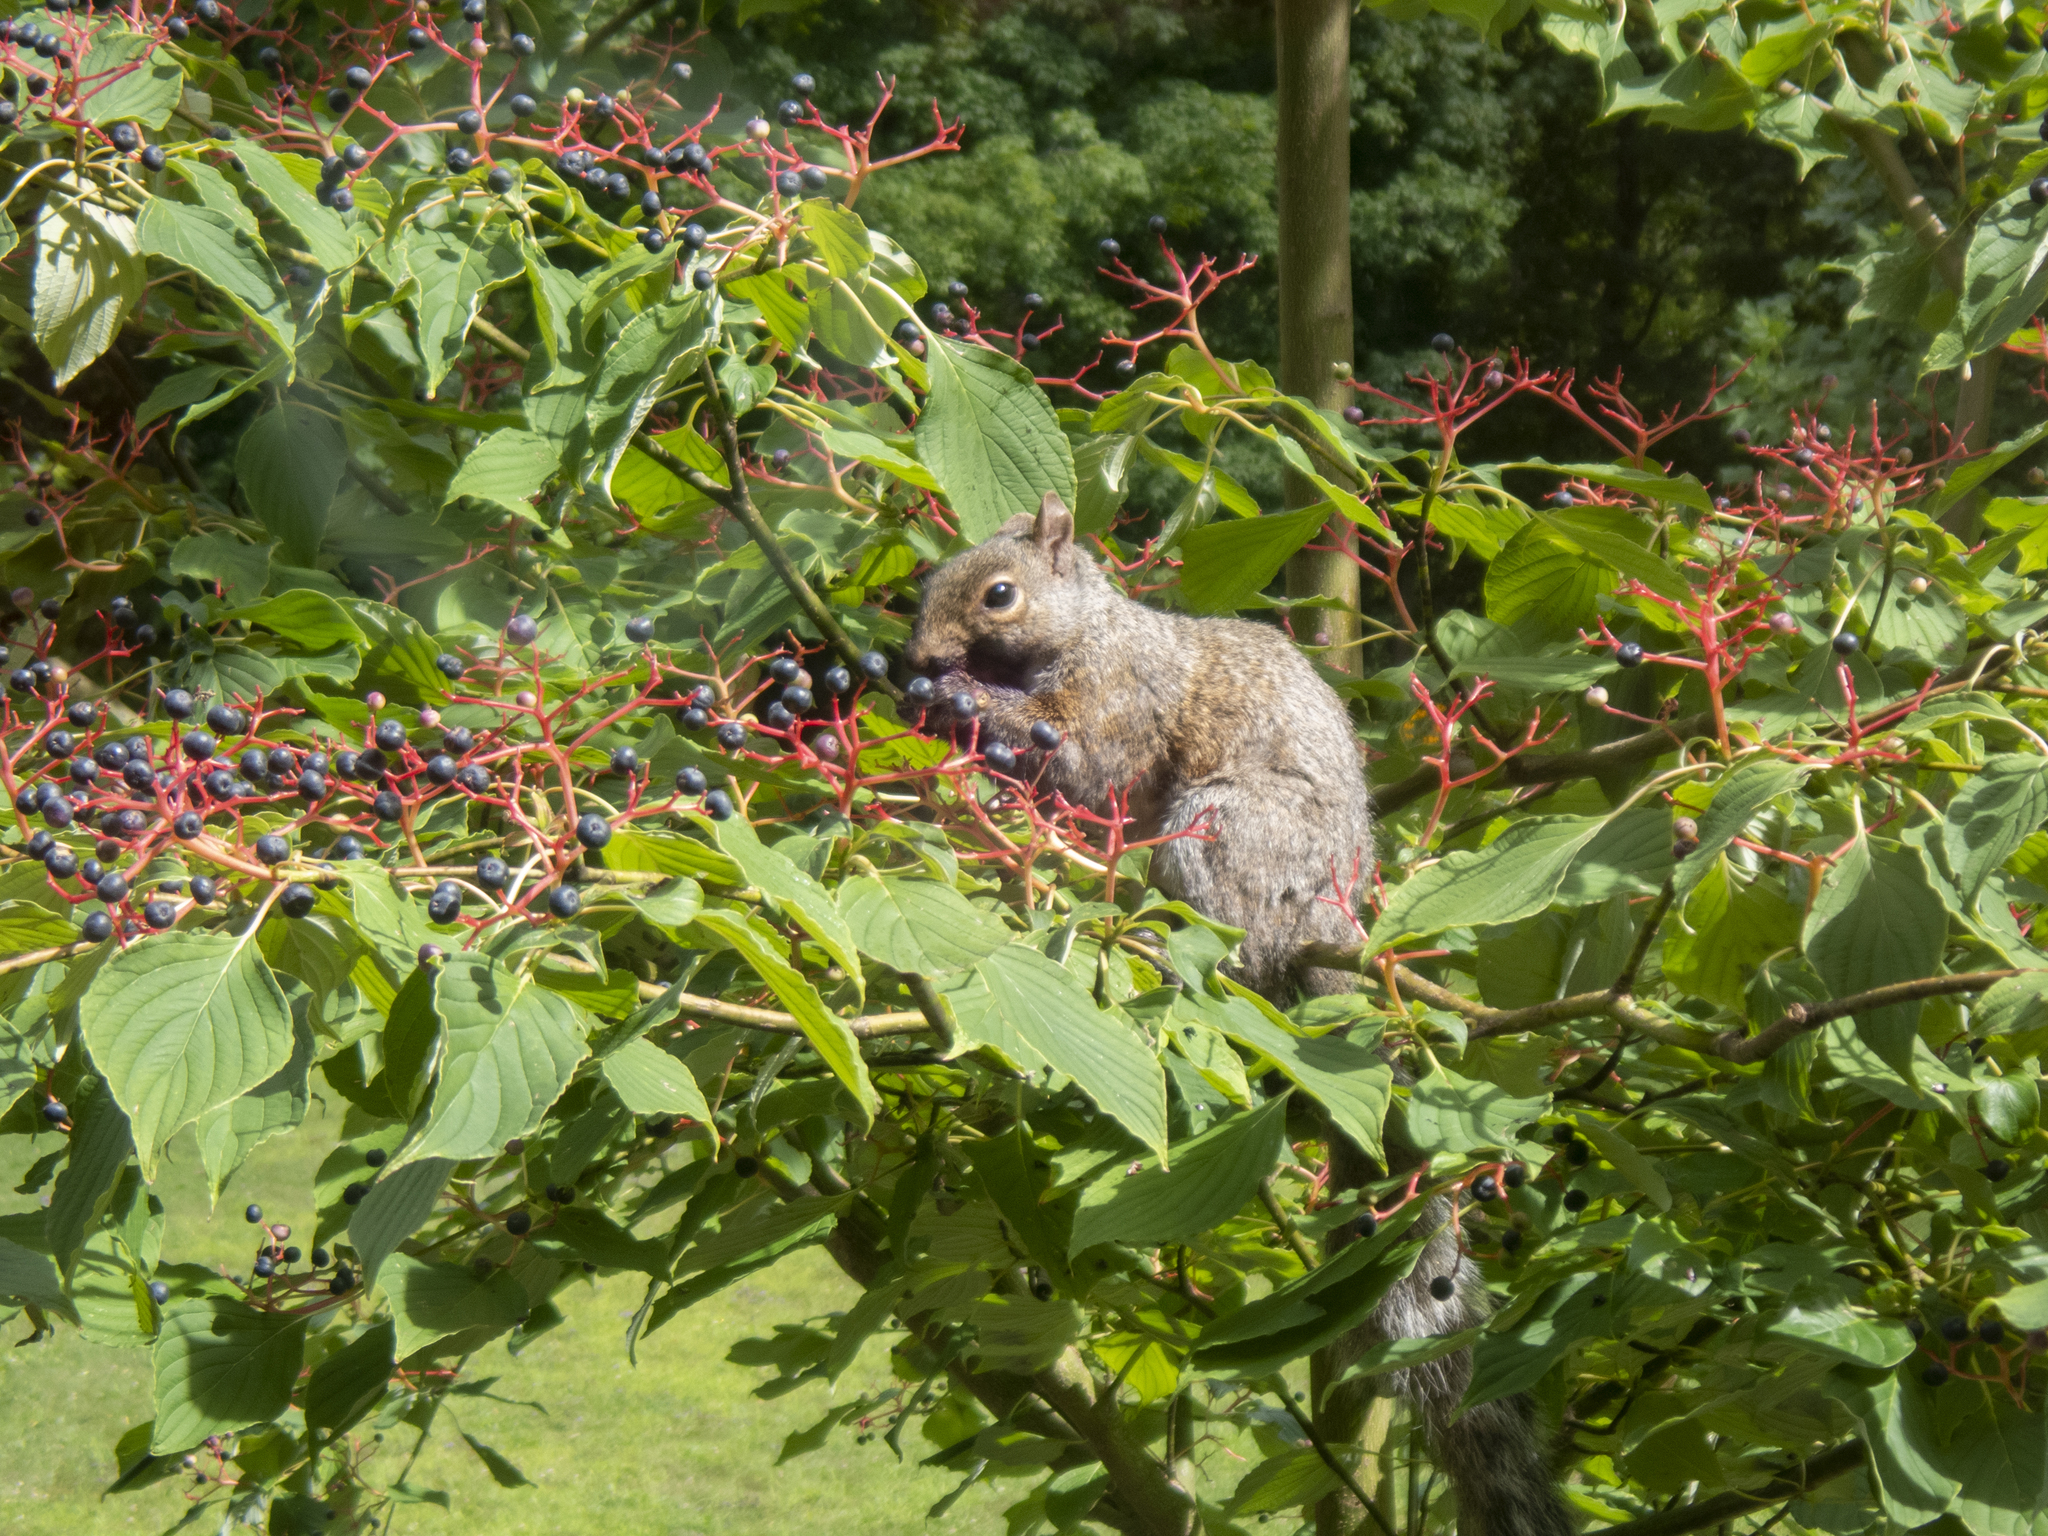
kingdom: Animalia
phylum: Chordata
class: Mammalia
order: Rodentia
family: Sciuridae
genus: Sciurus
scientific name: Sciurus carolinensis
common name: Eastern gray squirrel
